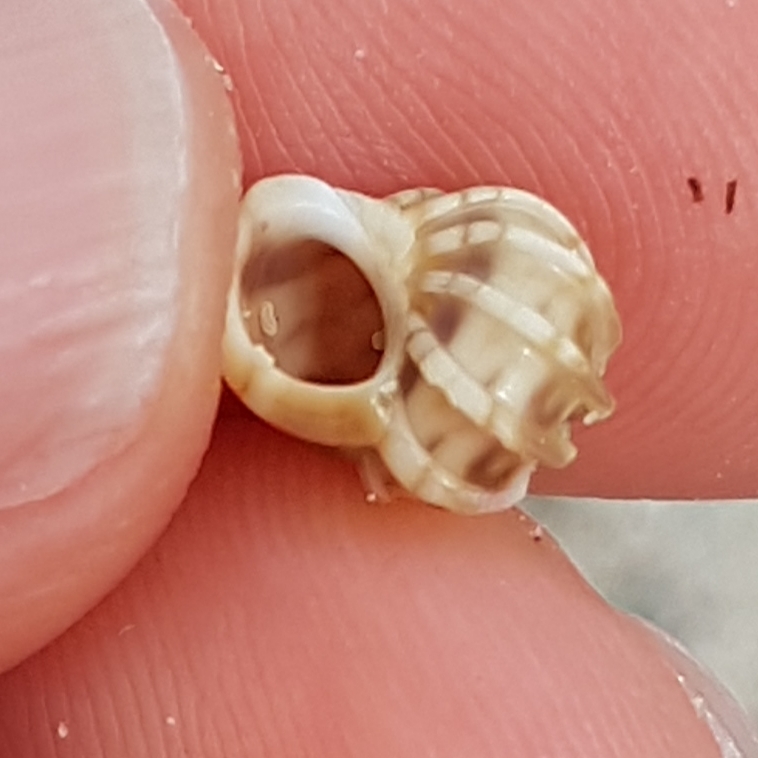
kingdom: Animalia
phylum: Mollusca
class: Gastropoda
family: Epitoniidae
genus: Epitonium
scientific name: Epitonium clathrus
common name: Common wentletrap
